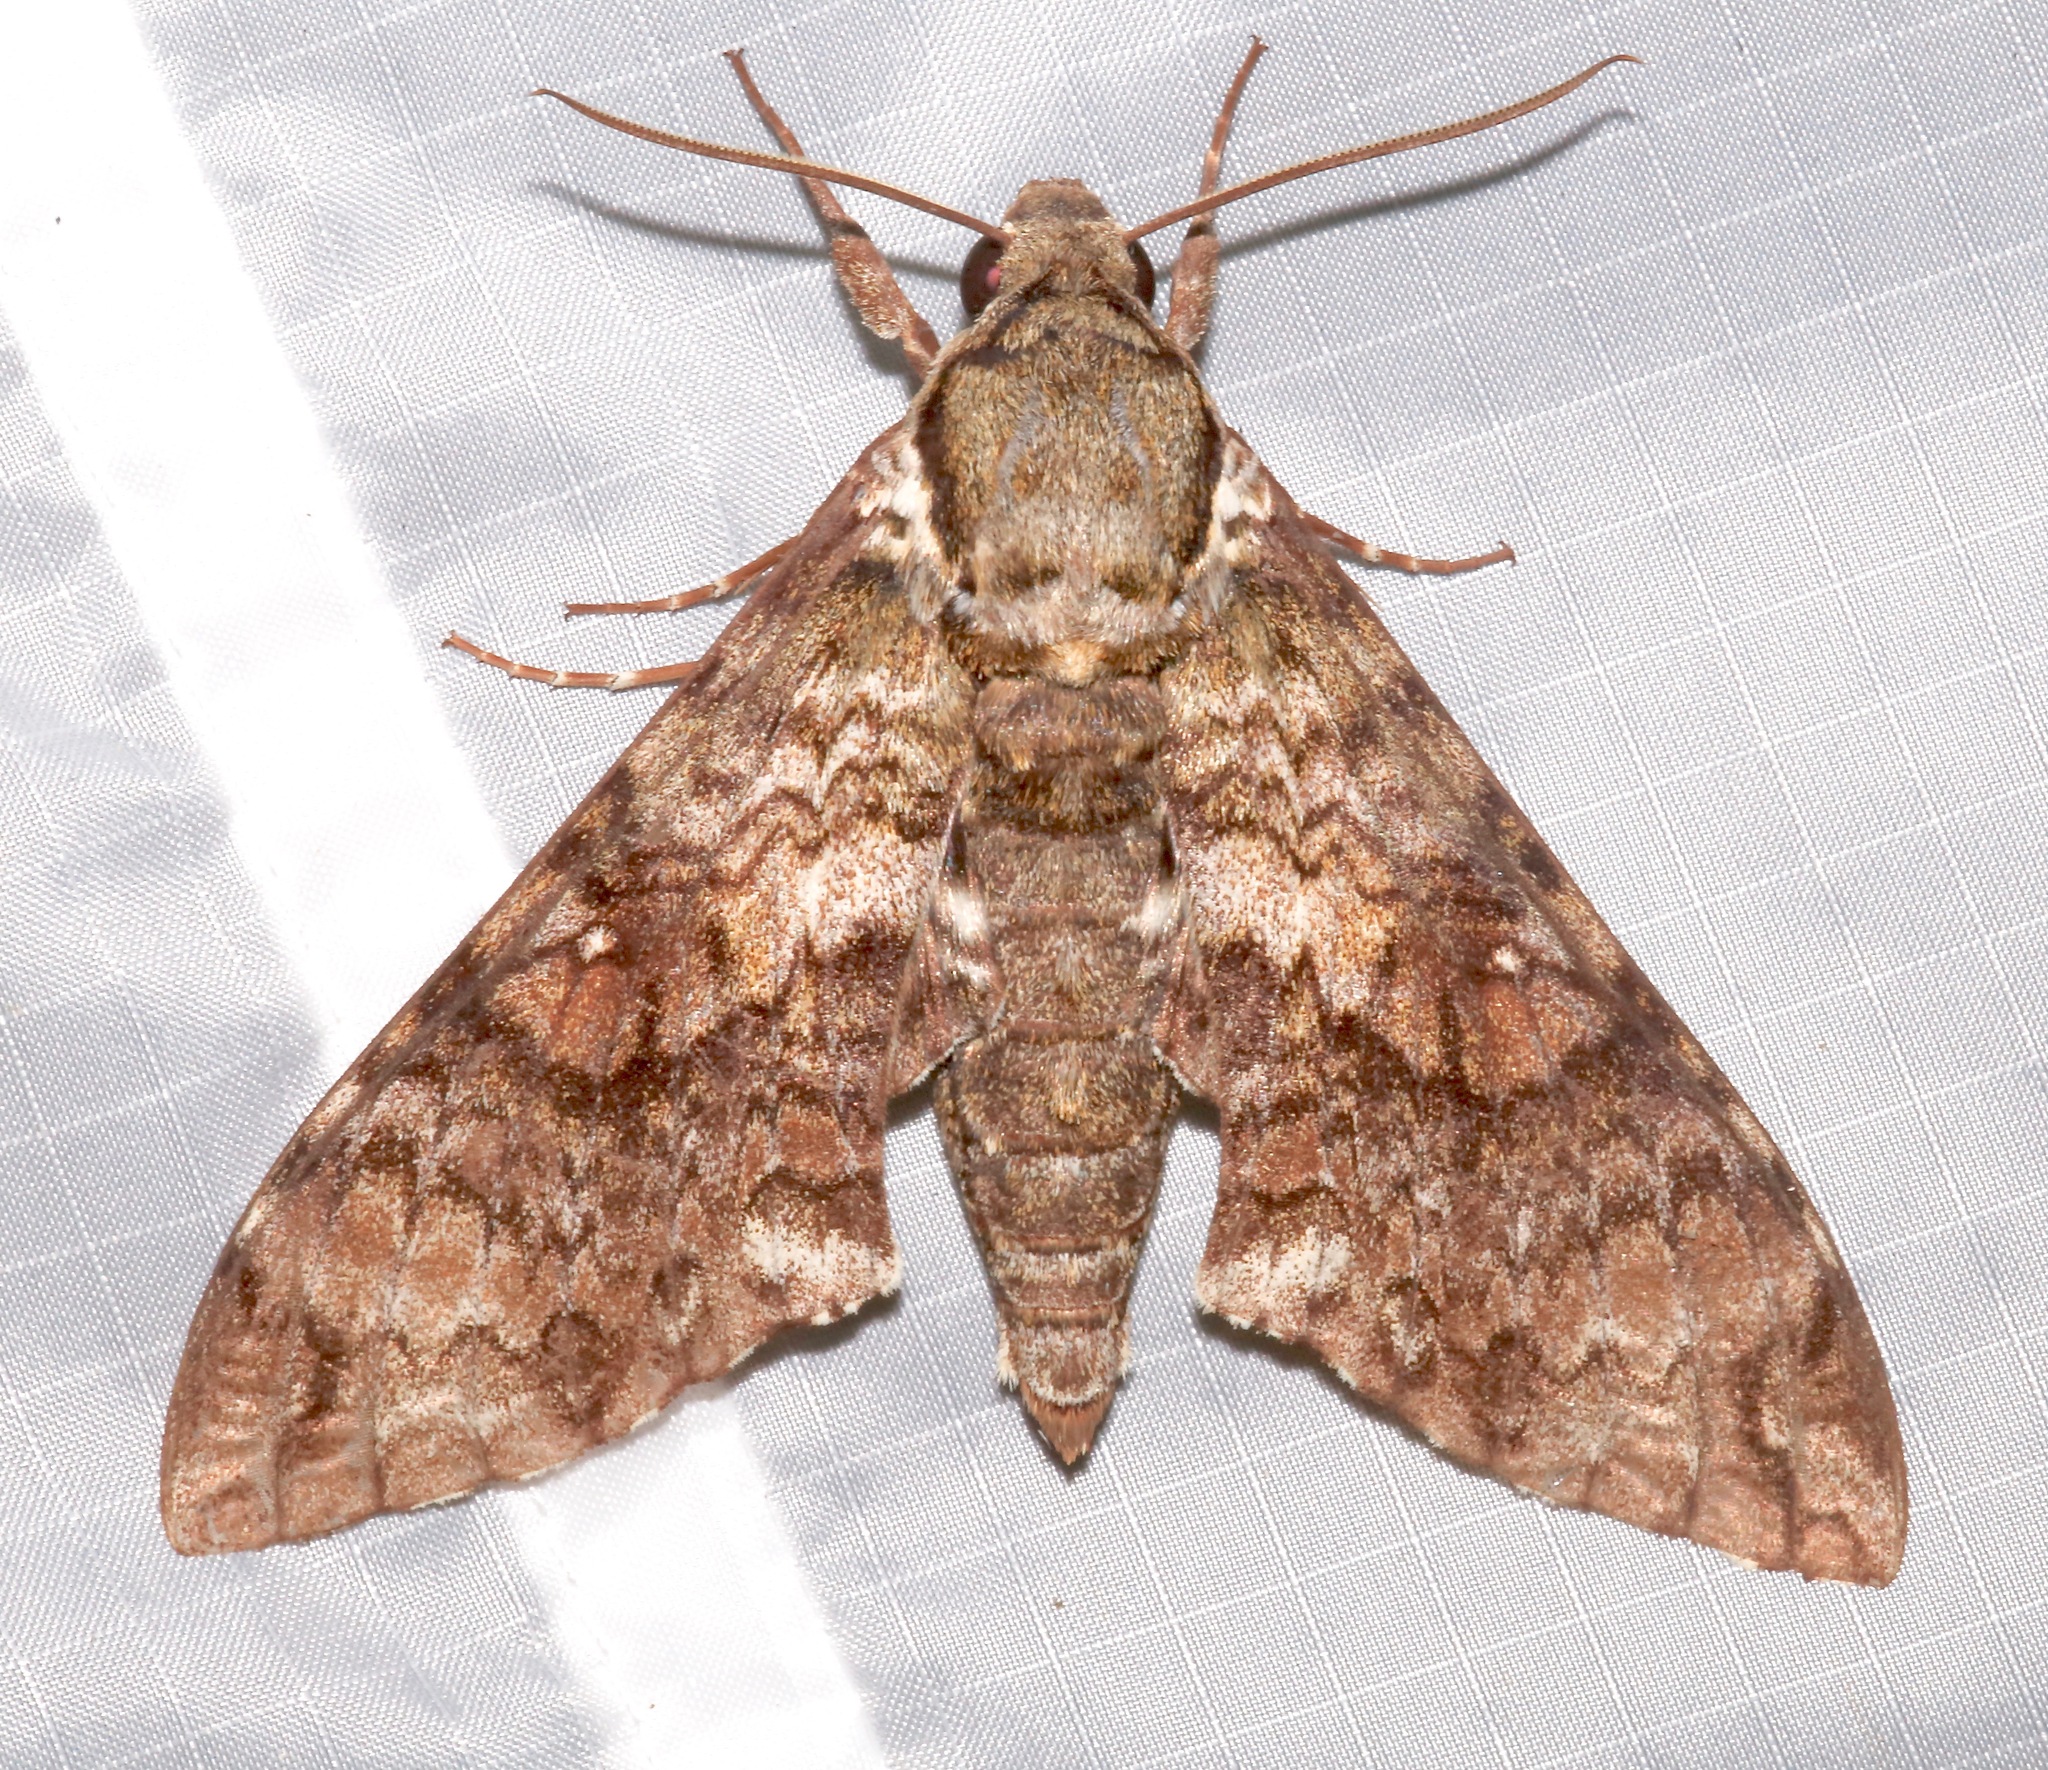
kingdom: Animalia
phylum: Arthropoda
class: Insecta
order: Lepidoptera
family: Sphingidae
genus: Manduca
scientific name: Manduca neglecta
